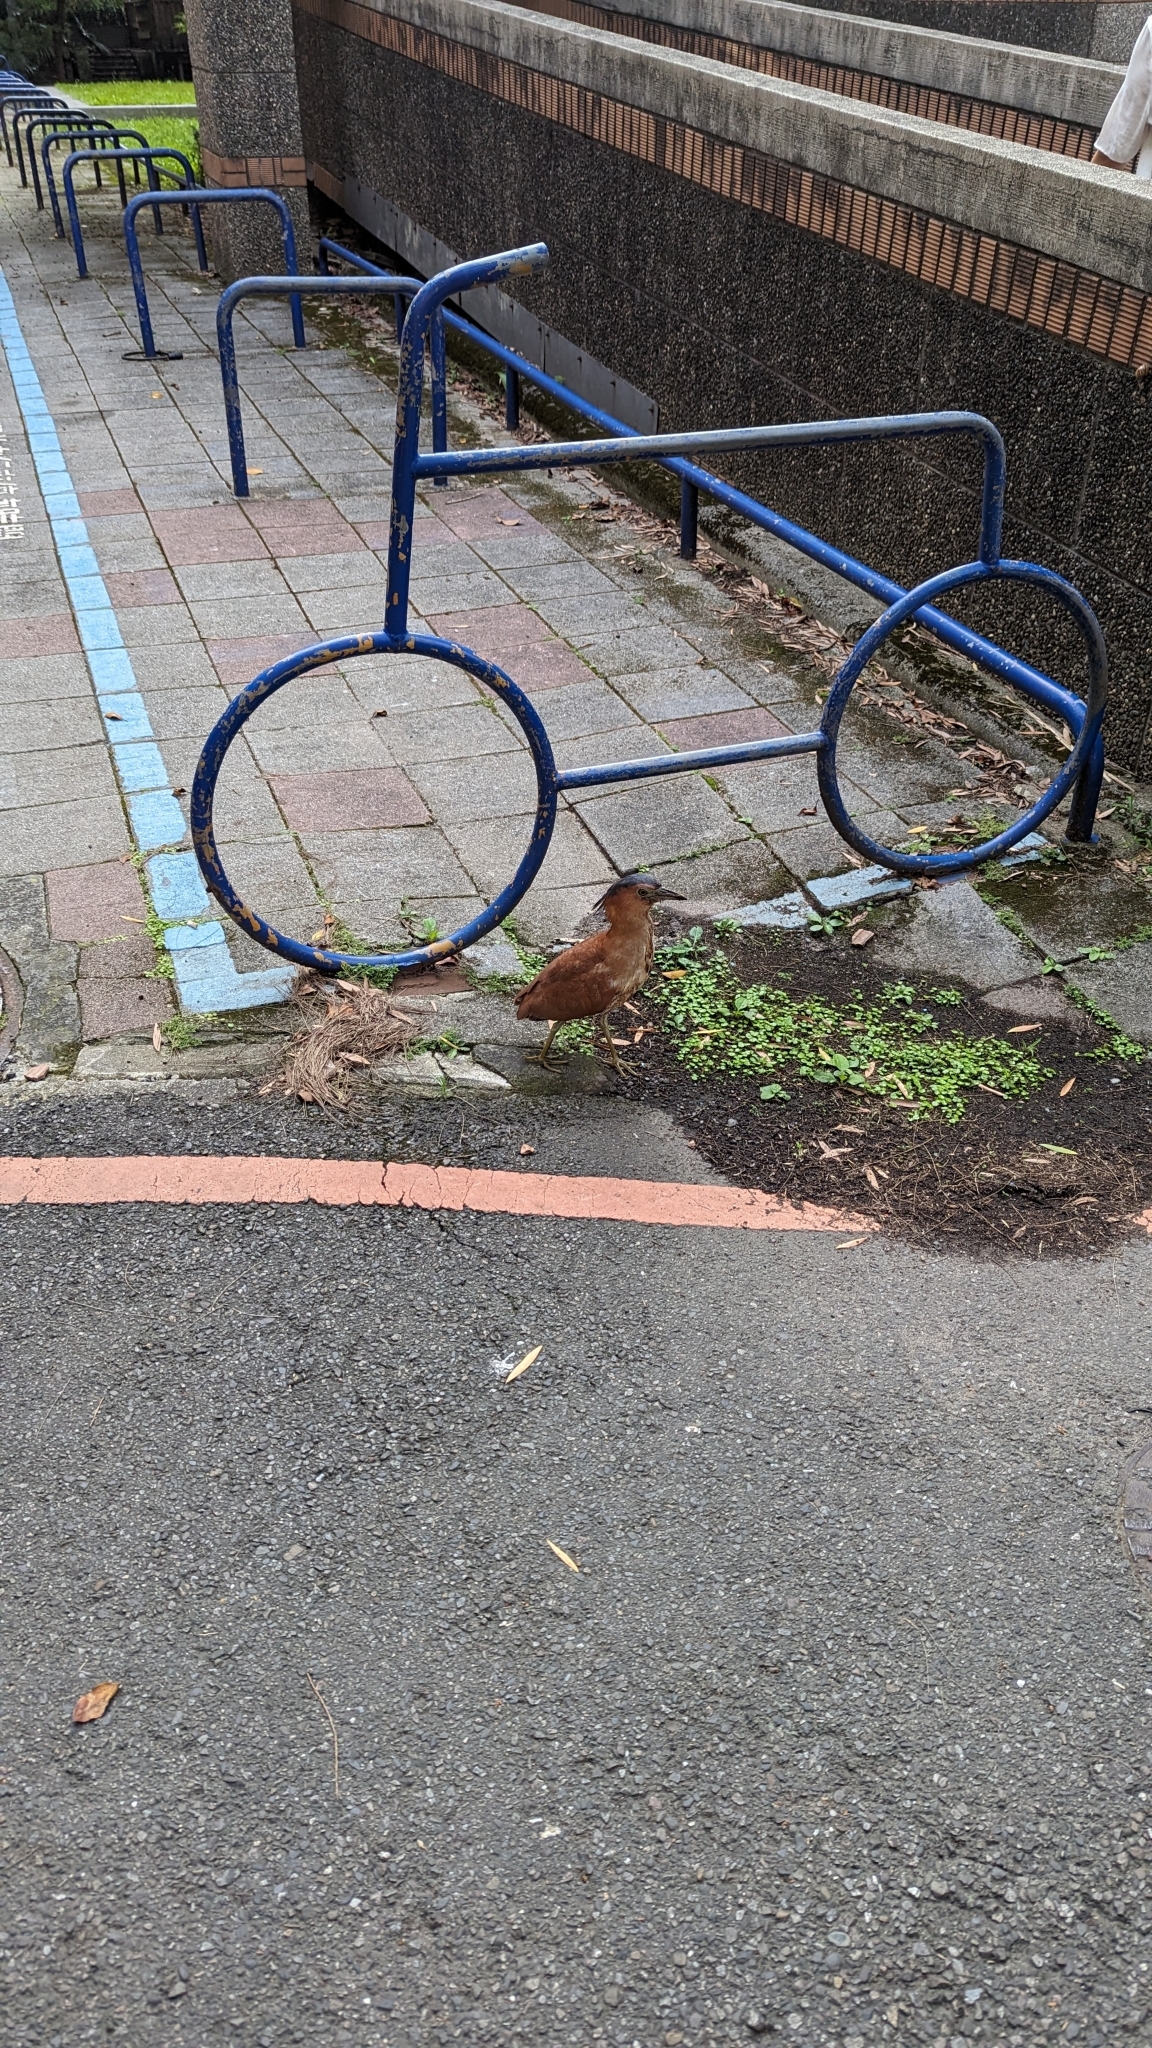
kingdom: Animalia
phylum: Chordata
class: Aves
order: Pelecaniformes
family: Ardeidae
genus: Gorsachius
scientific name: Gorsachius melanolophus
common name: Malayan night heron
